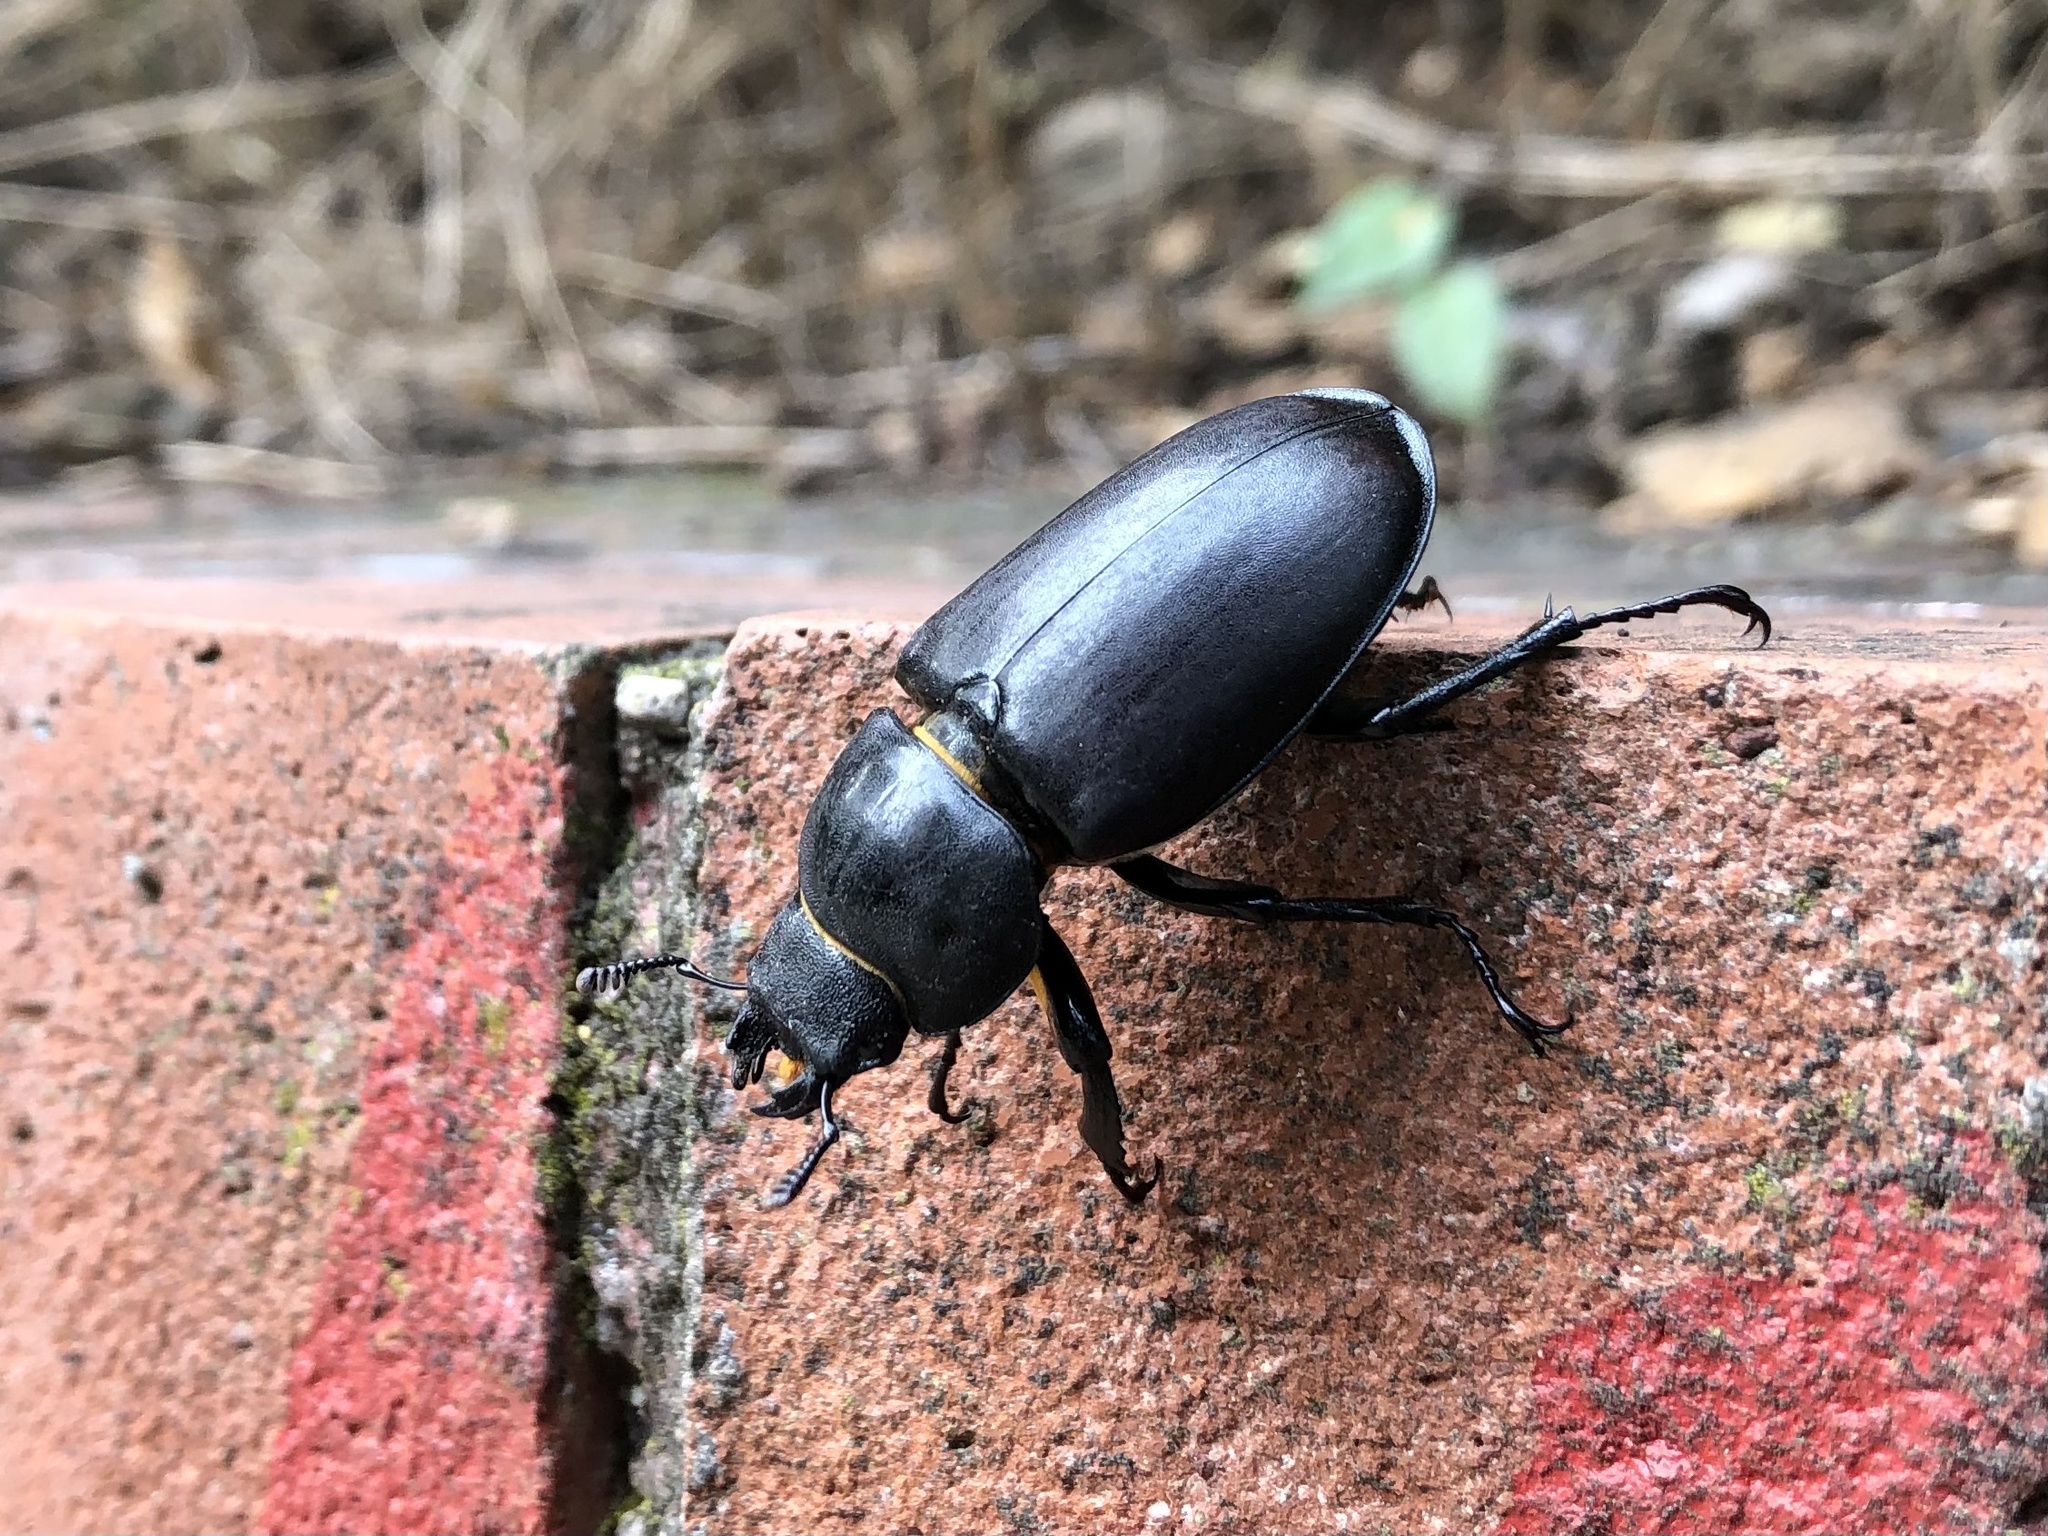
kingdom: Animalia
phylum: Arthropoda
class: Insecta
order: Coleoptera
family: Lucanidae
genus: Lucanus
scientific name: Lucanus cervus
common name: Stag beetle
